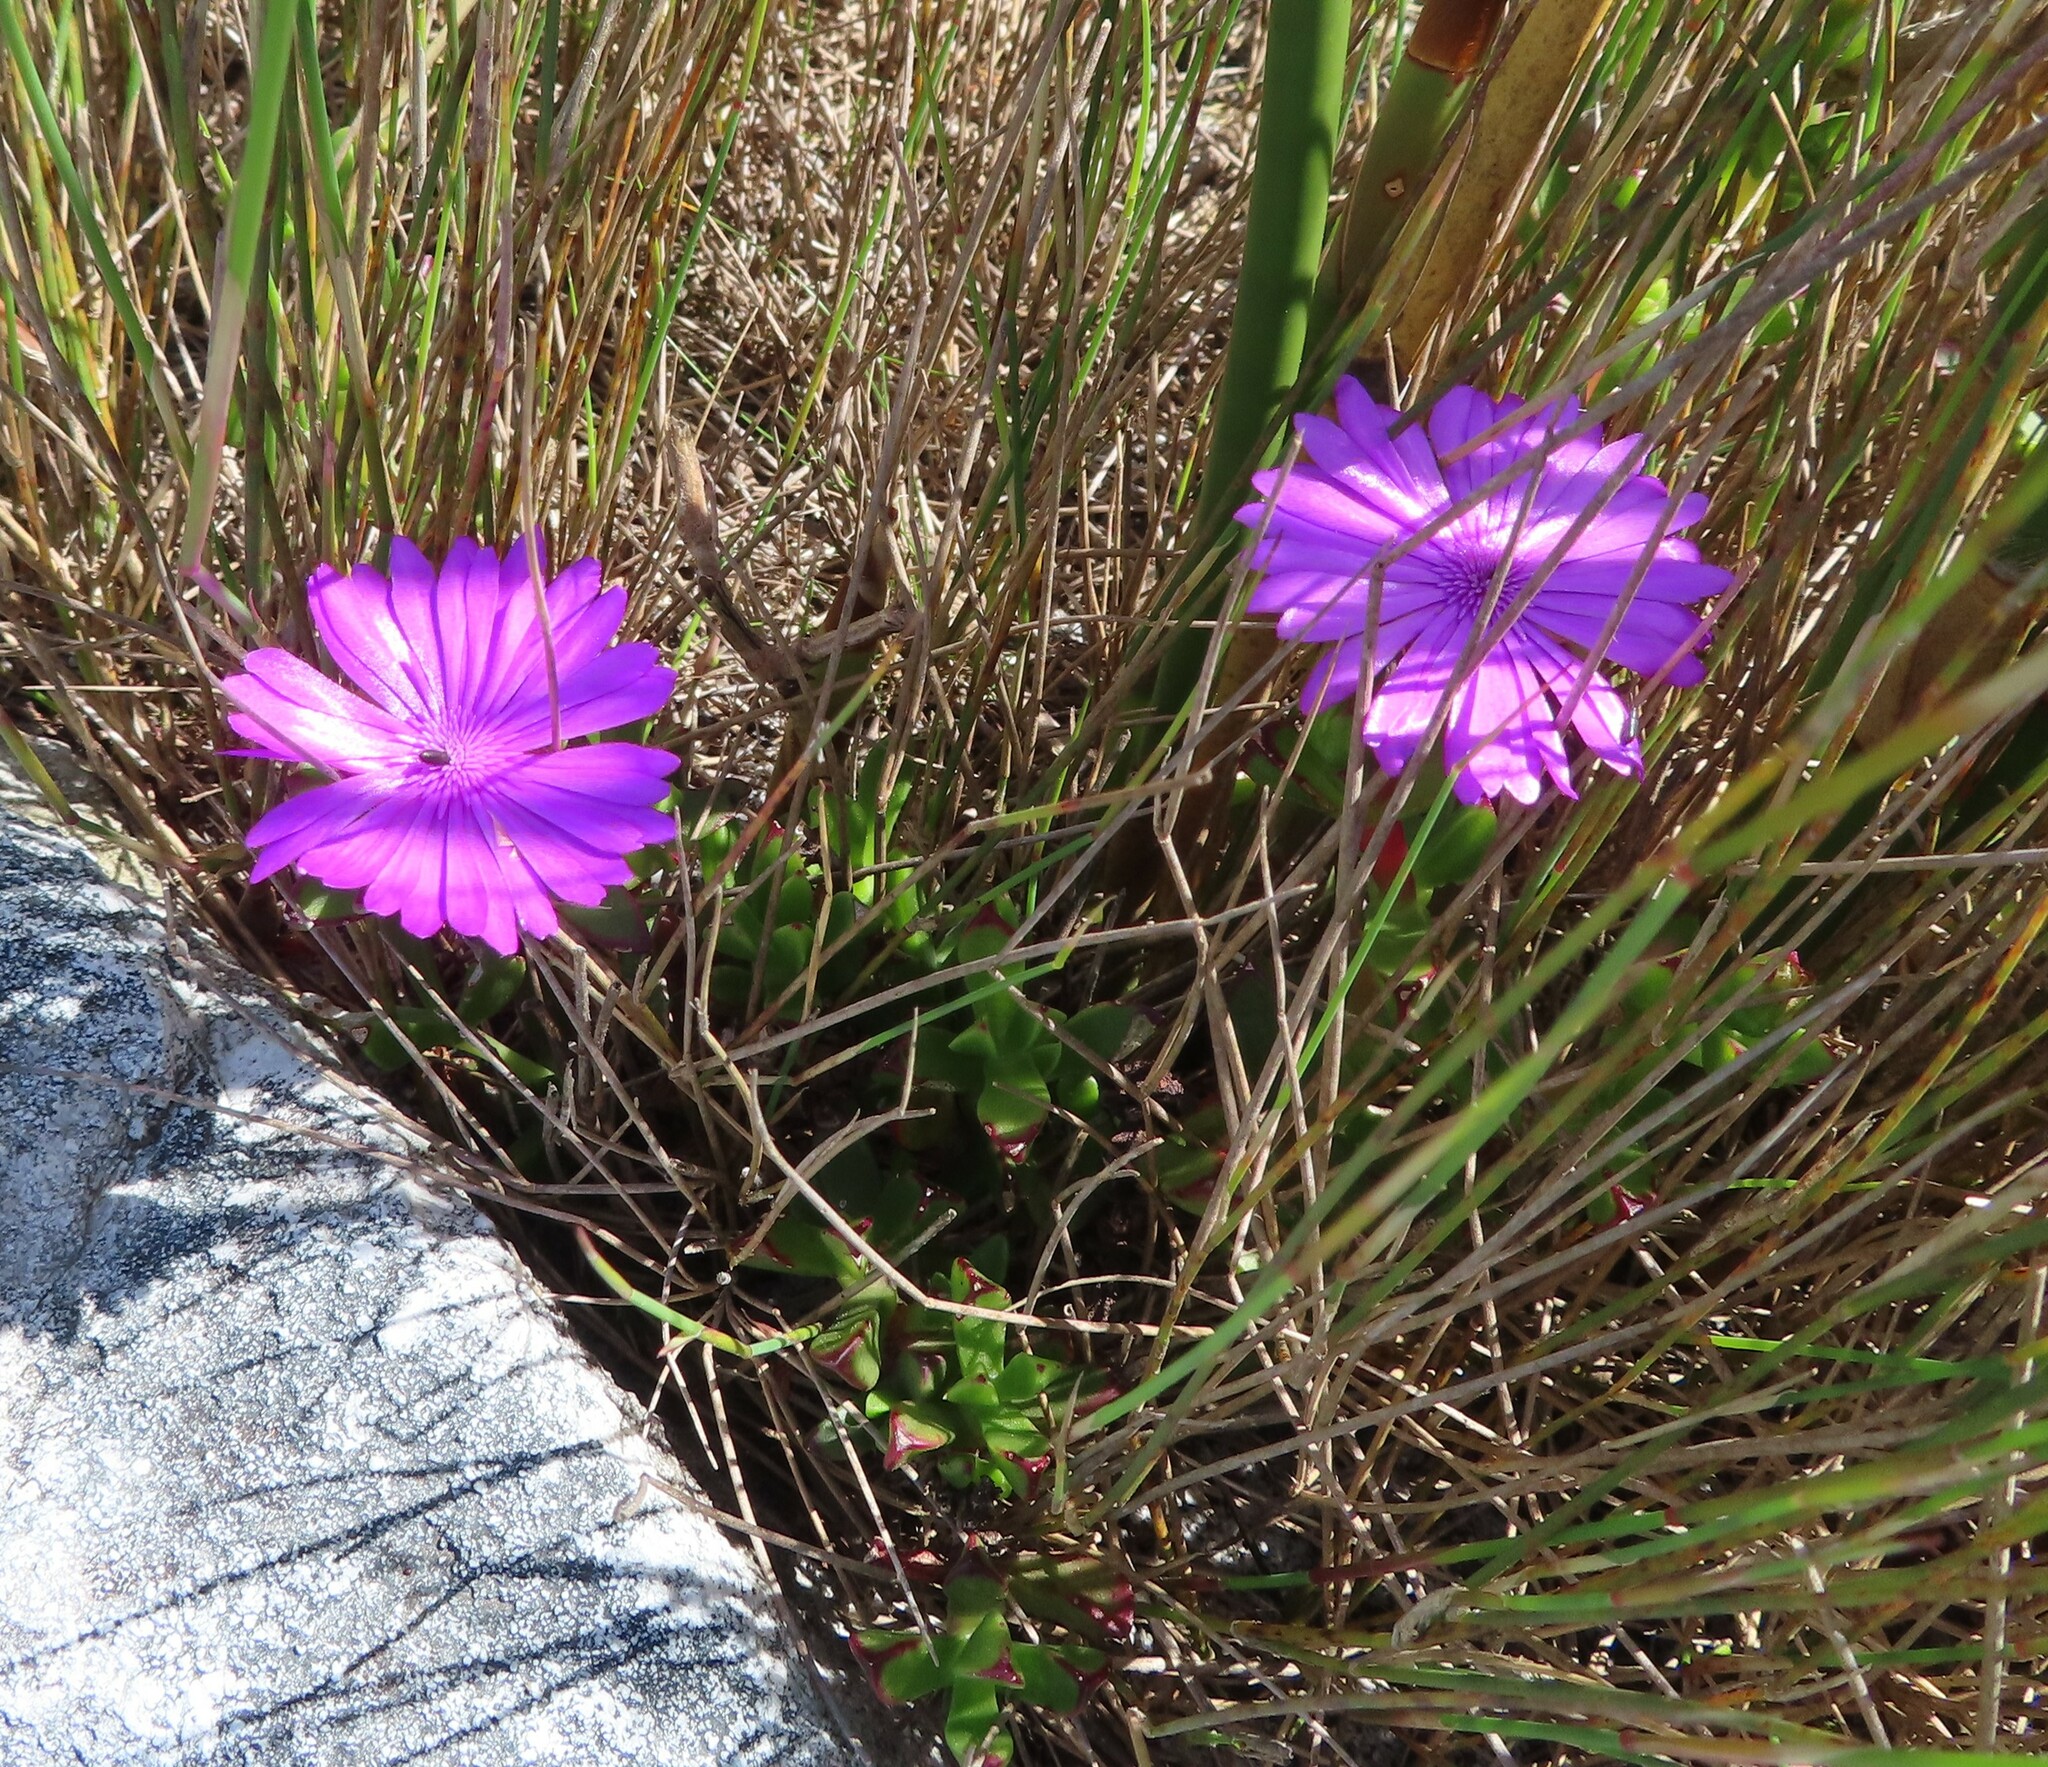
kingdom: Plantae
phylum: Tracheophyta
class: Magnoliopsida
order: Caryophyllales
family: Aizoaceae
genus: Erepsia
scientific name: Erepsia inclaudens
